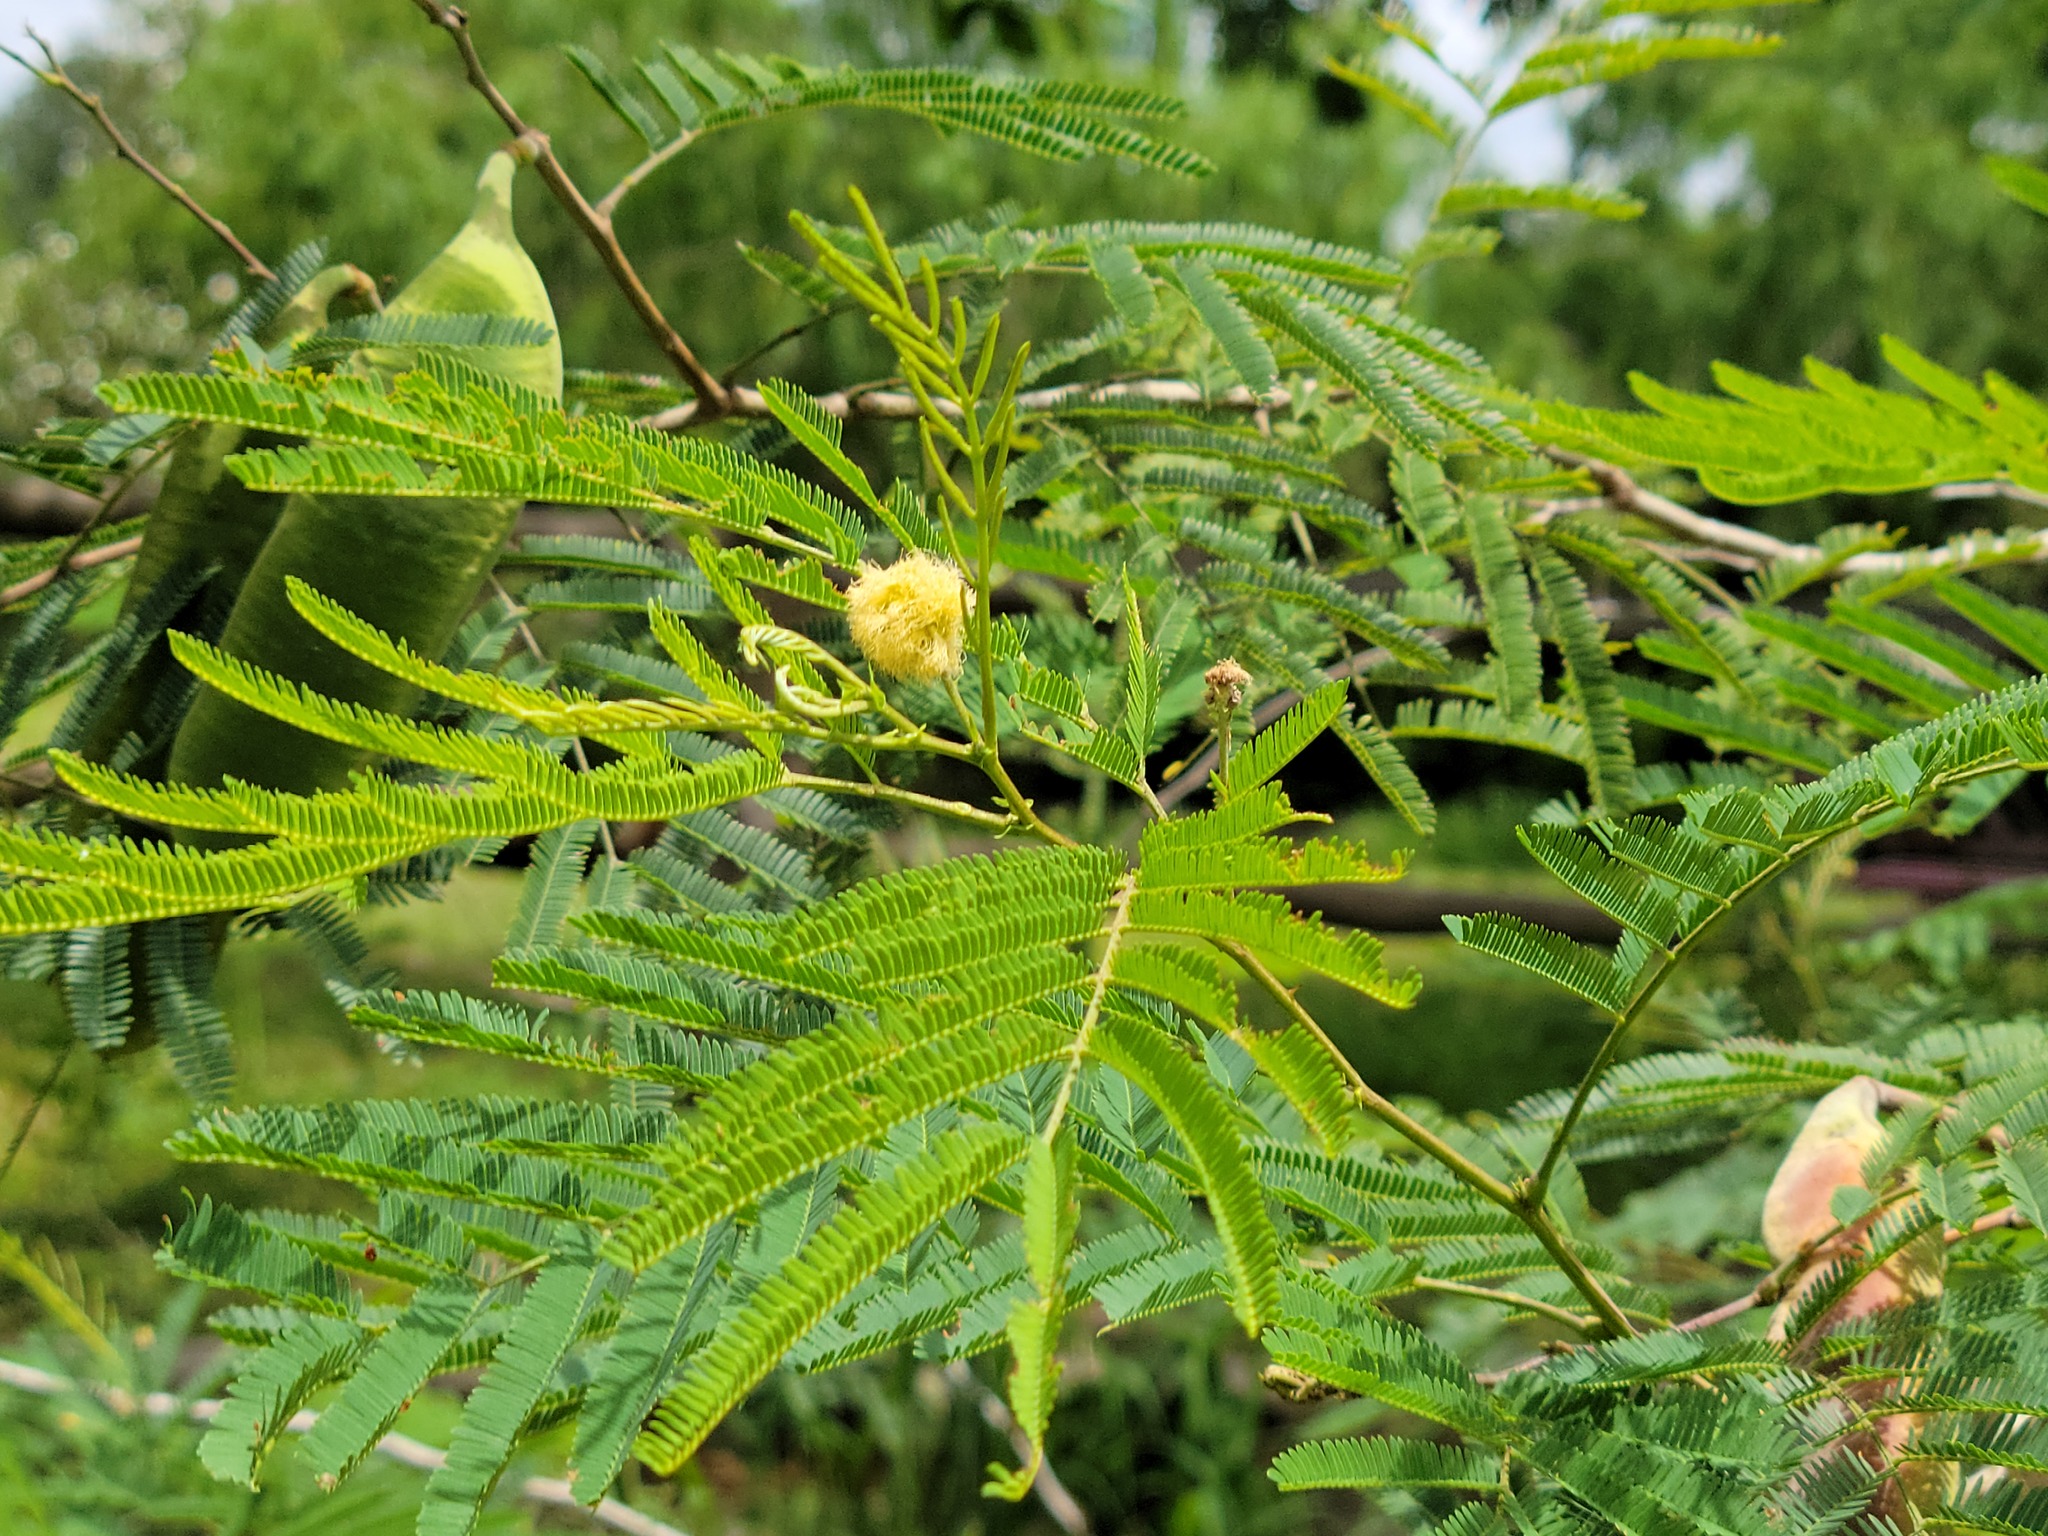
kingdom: Plantae
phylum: Tracheophyta
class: Magnoliopsida
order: Fabales
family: Fabaceae
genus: Senegalia
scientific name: Senegalia berlandieri
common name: Berlandier acacia
